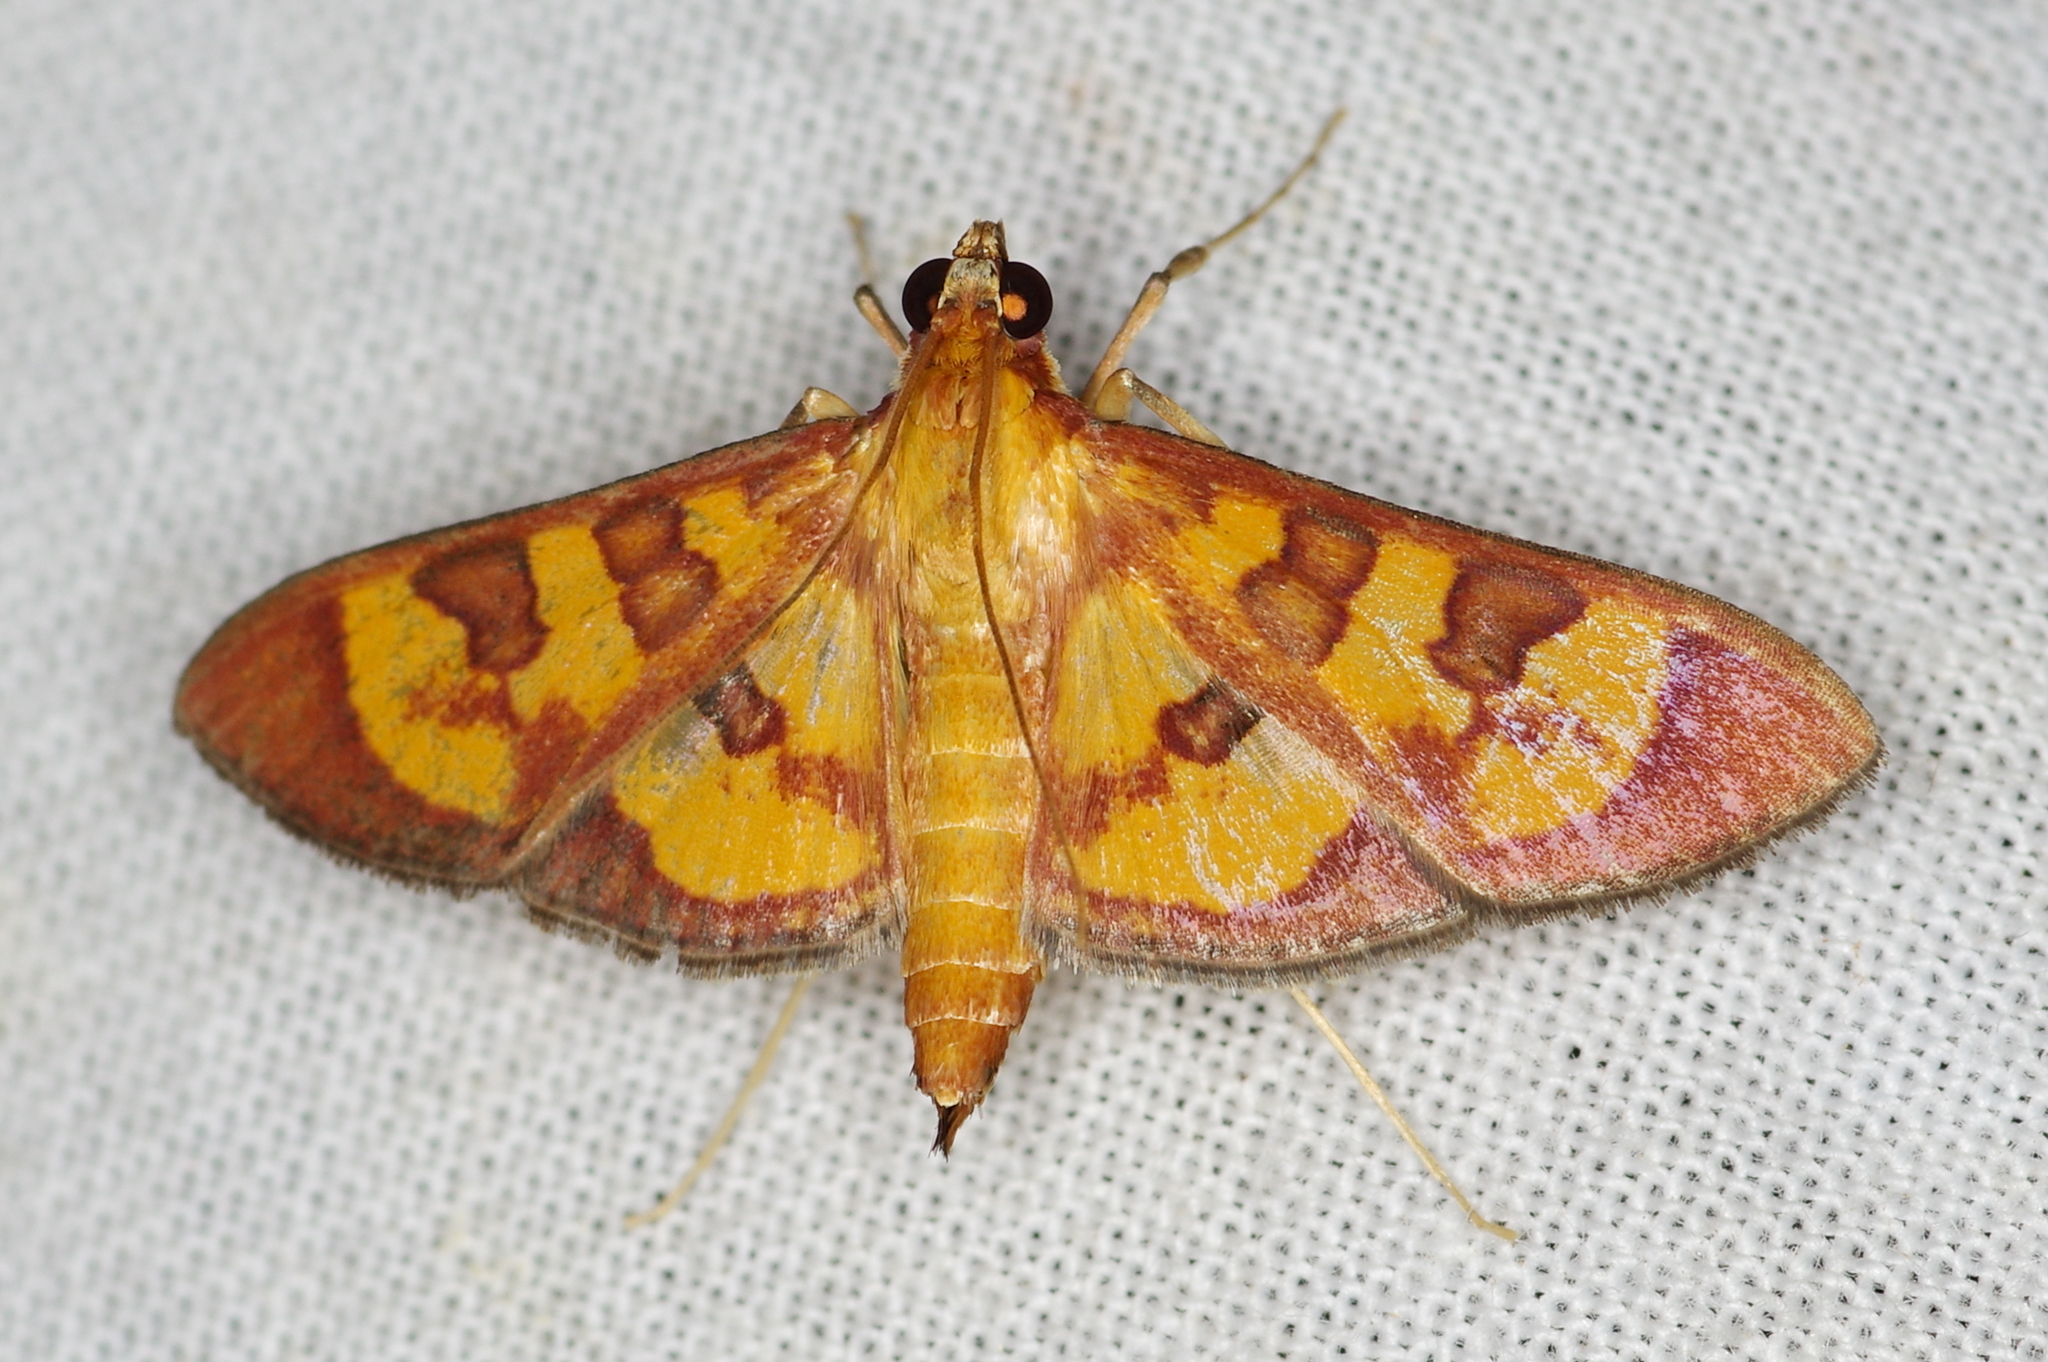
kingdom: Animalia
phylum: Arthropoda
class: Insecta
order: Lepidoptera
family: Crambidae
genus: Trithyris
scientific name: Trithyris
